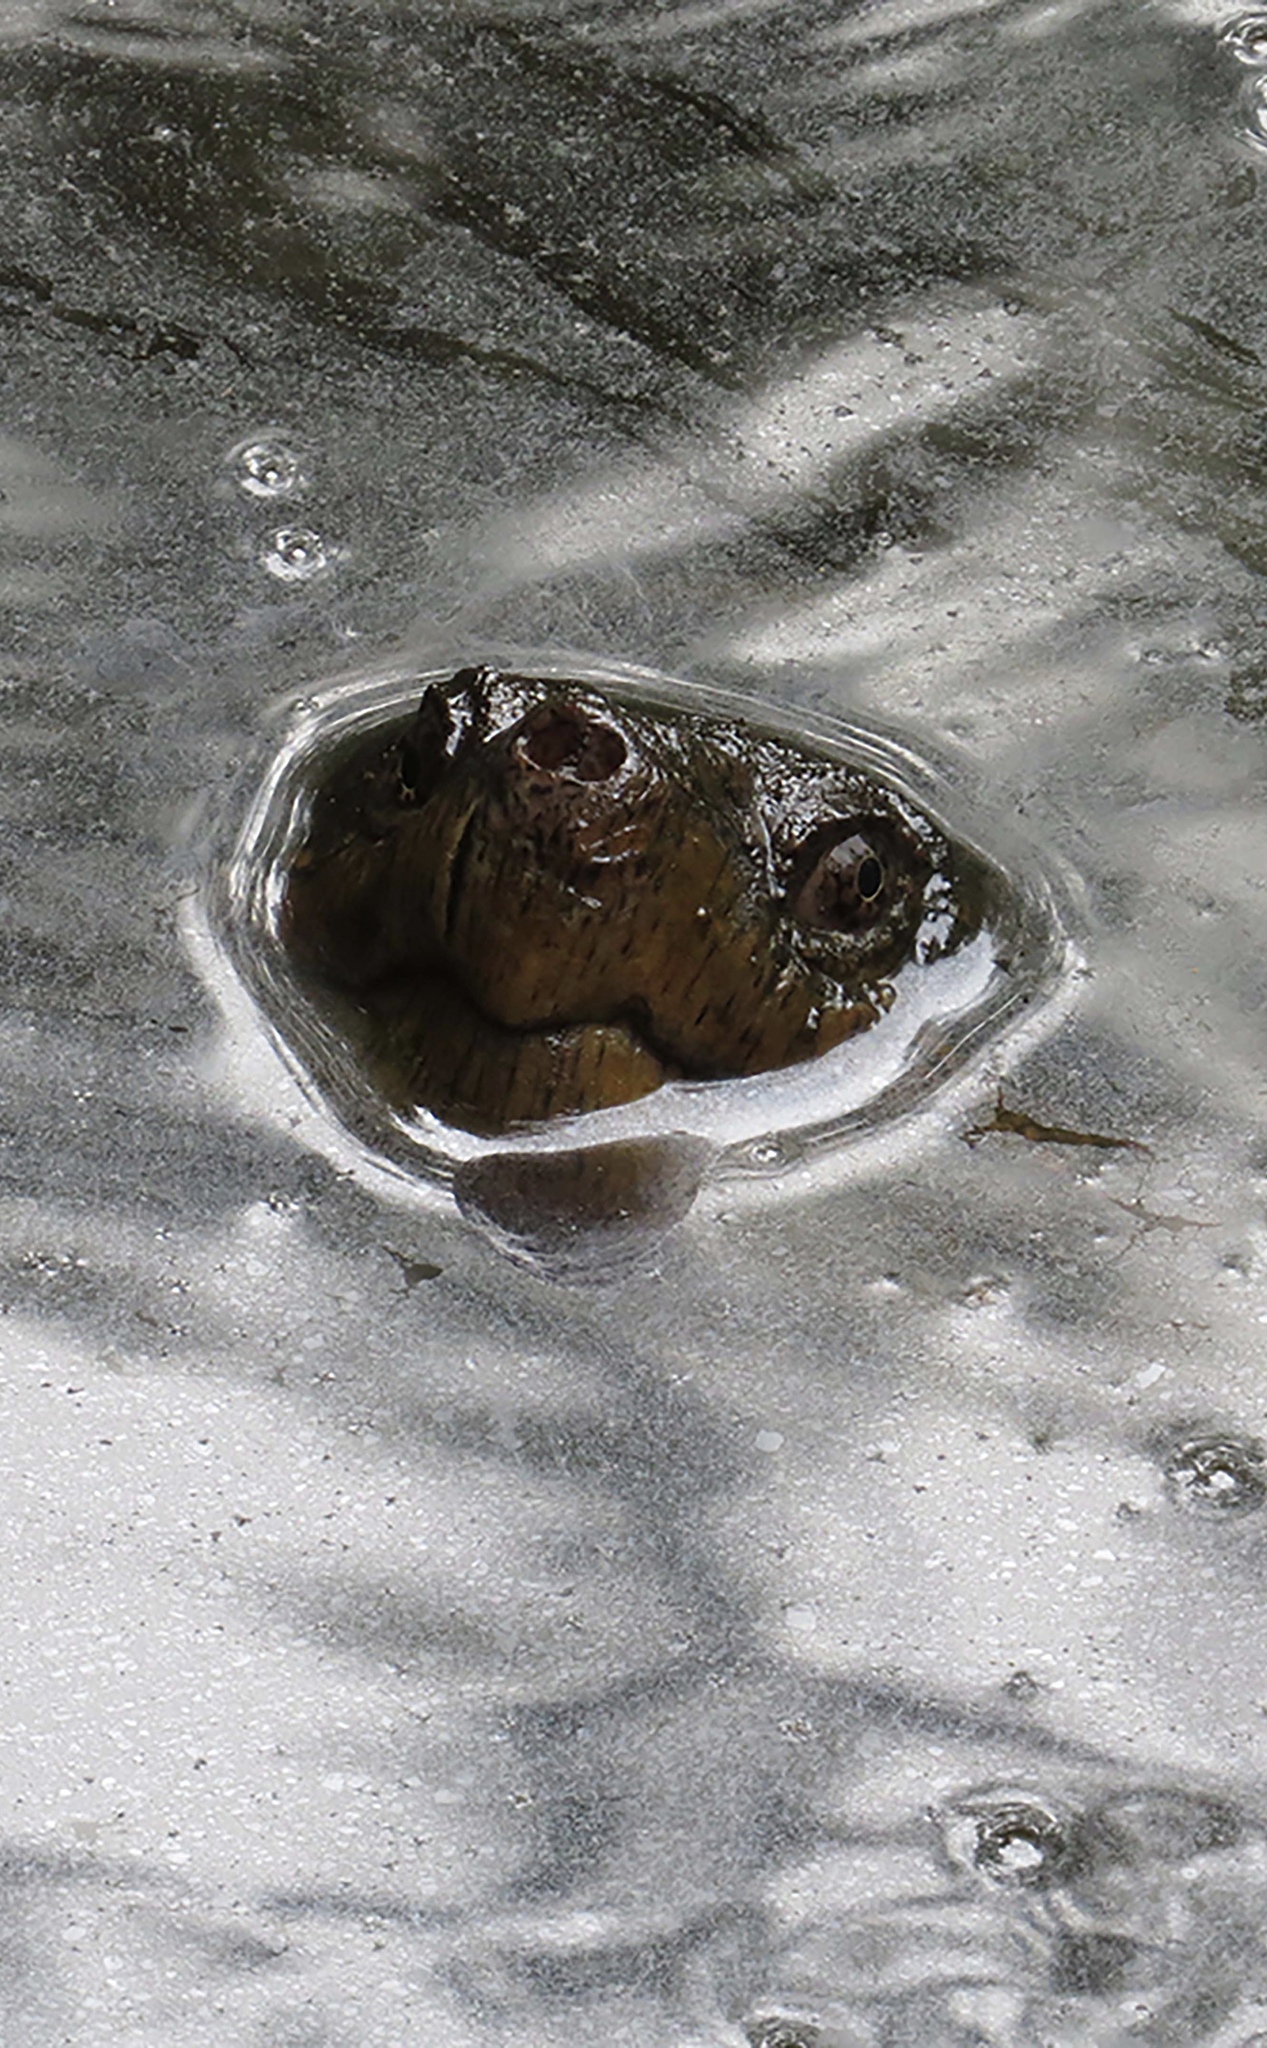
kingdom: Animalia
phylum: Chordata
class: Testudines
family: Chelydridae
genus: Chelydra
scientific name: Chelydra serpentina
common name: Common snapping turtle
